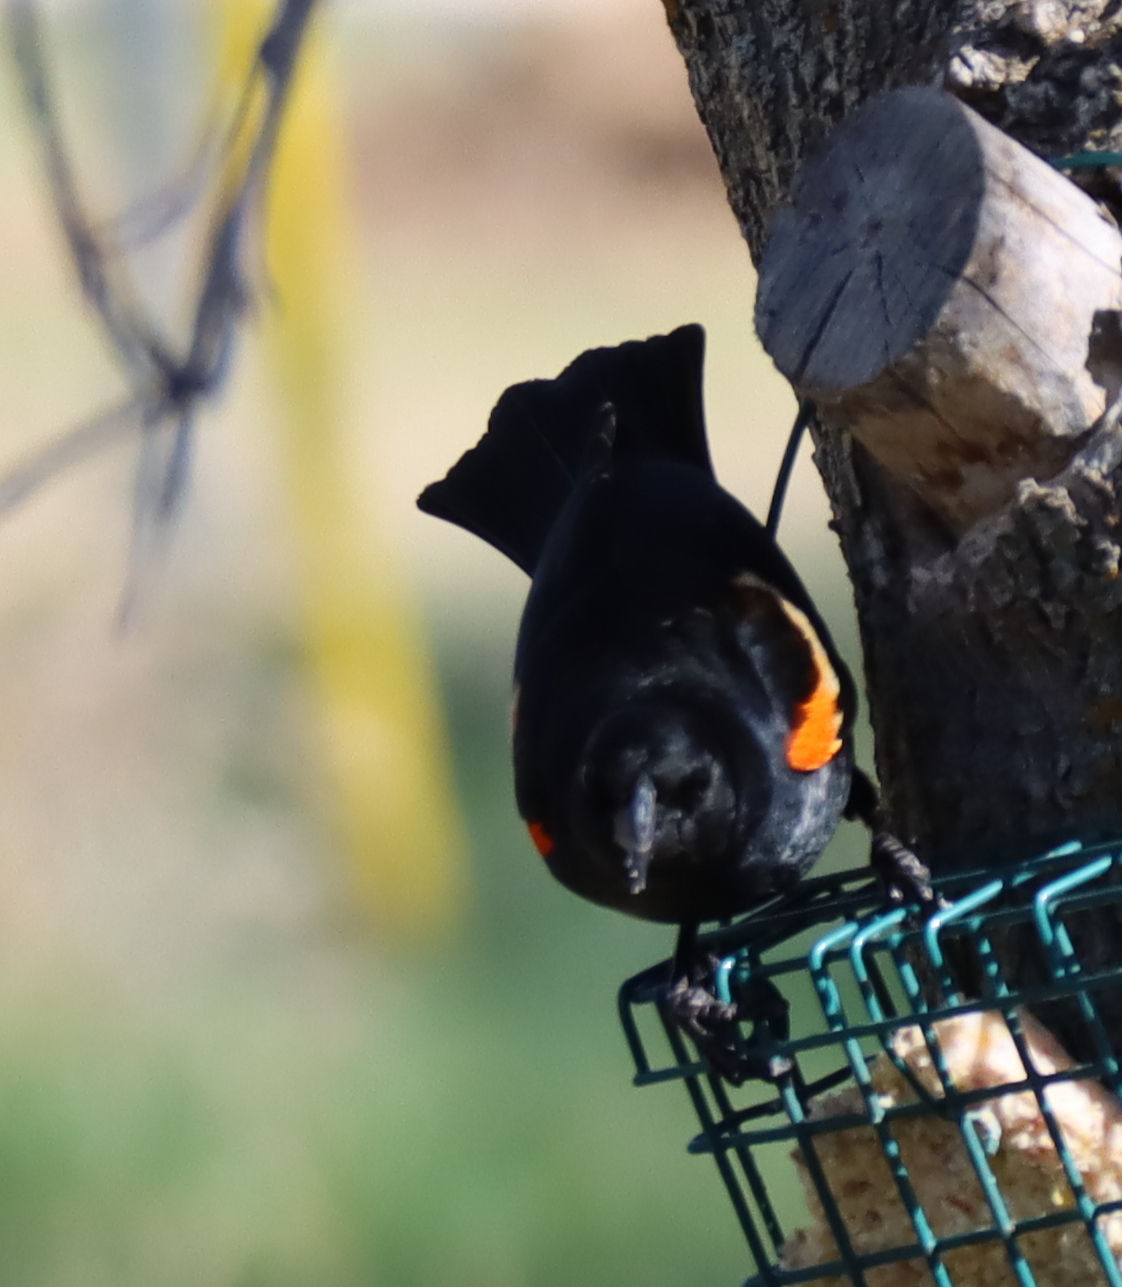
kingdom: Animalia
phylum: Chordata
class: Aves
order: Passeriformes
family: Icteridae
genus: Agelaius
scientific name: Agelaius phoeniceus
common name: Red-winged blackbird
